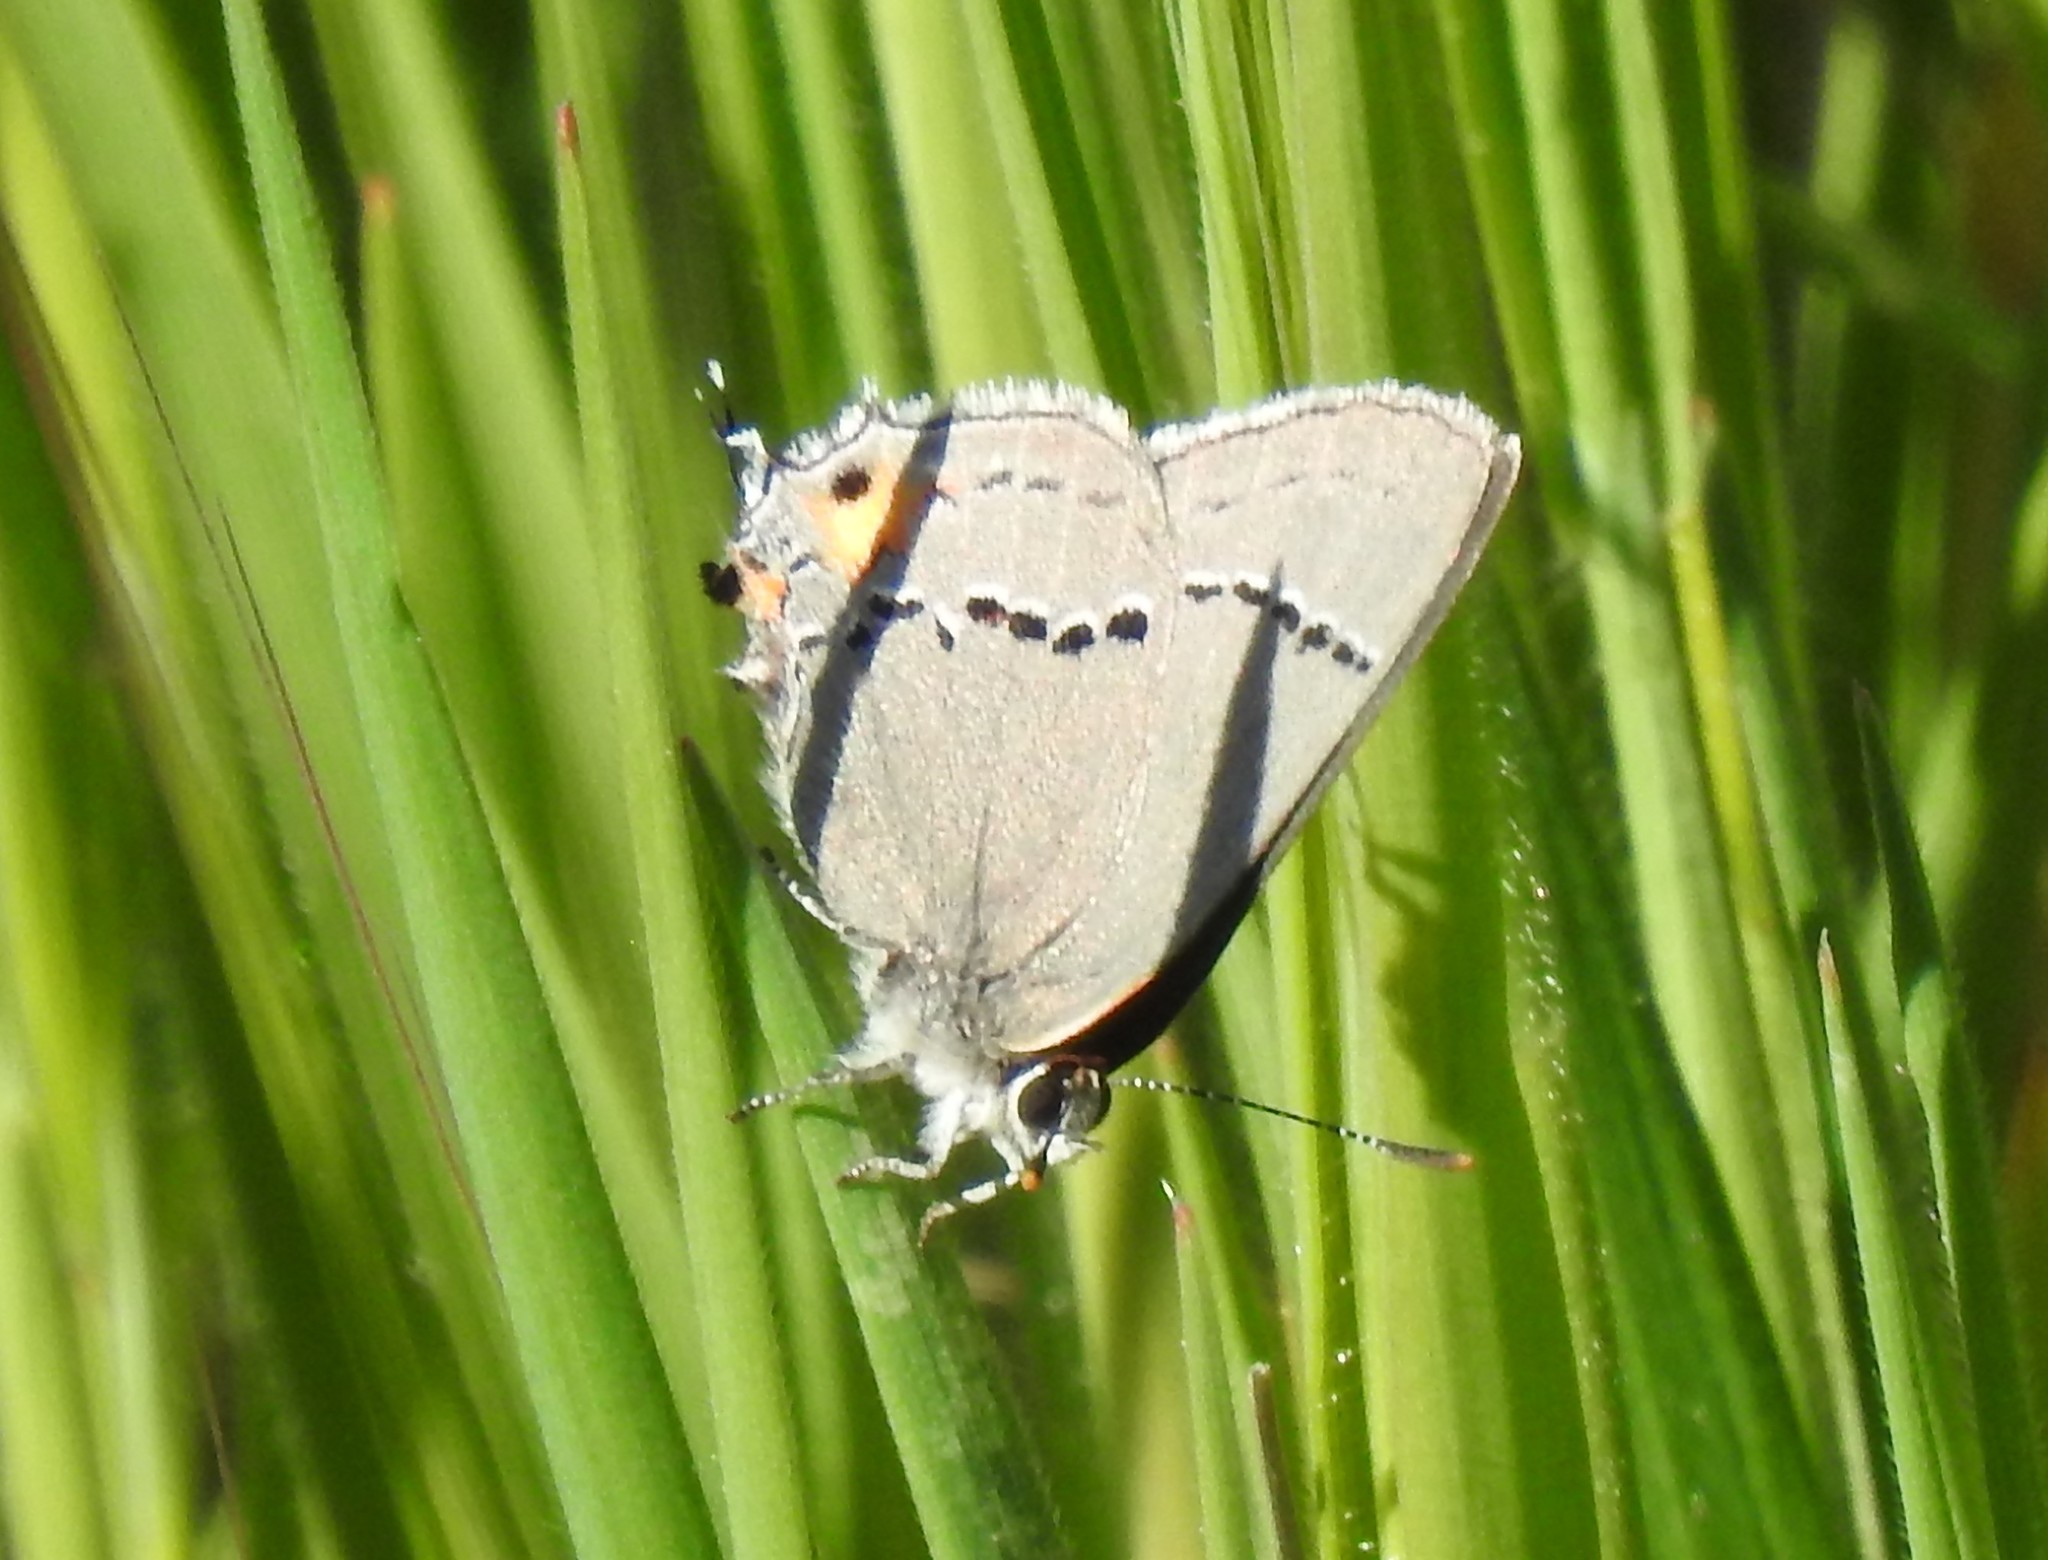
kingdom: Animalia
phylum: Arthropoda
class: Insecta
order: Lepidoptera
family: Lycaenidae
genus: Strymon
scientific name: Strymon melinus
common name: Gray hairstreak
